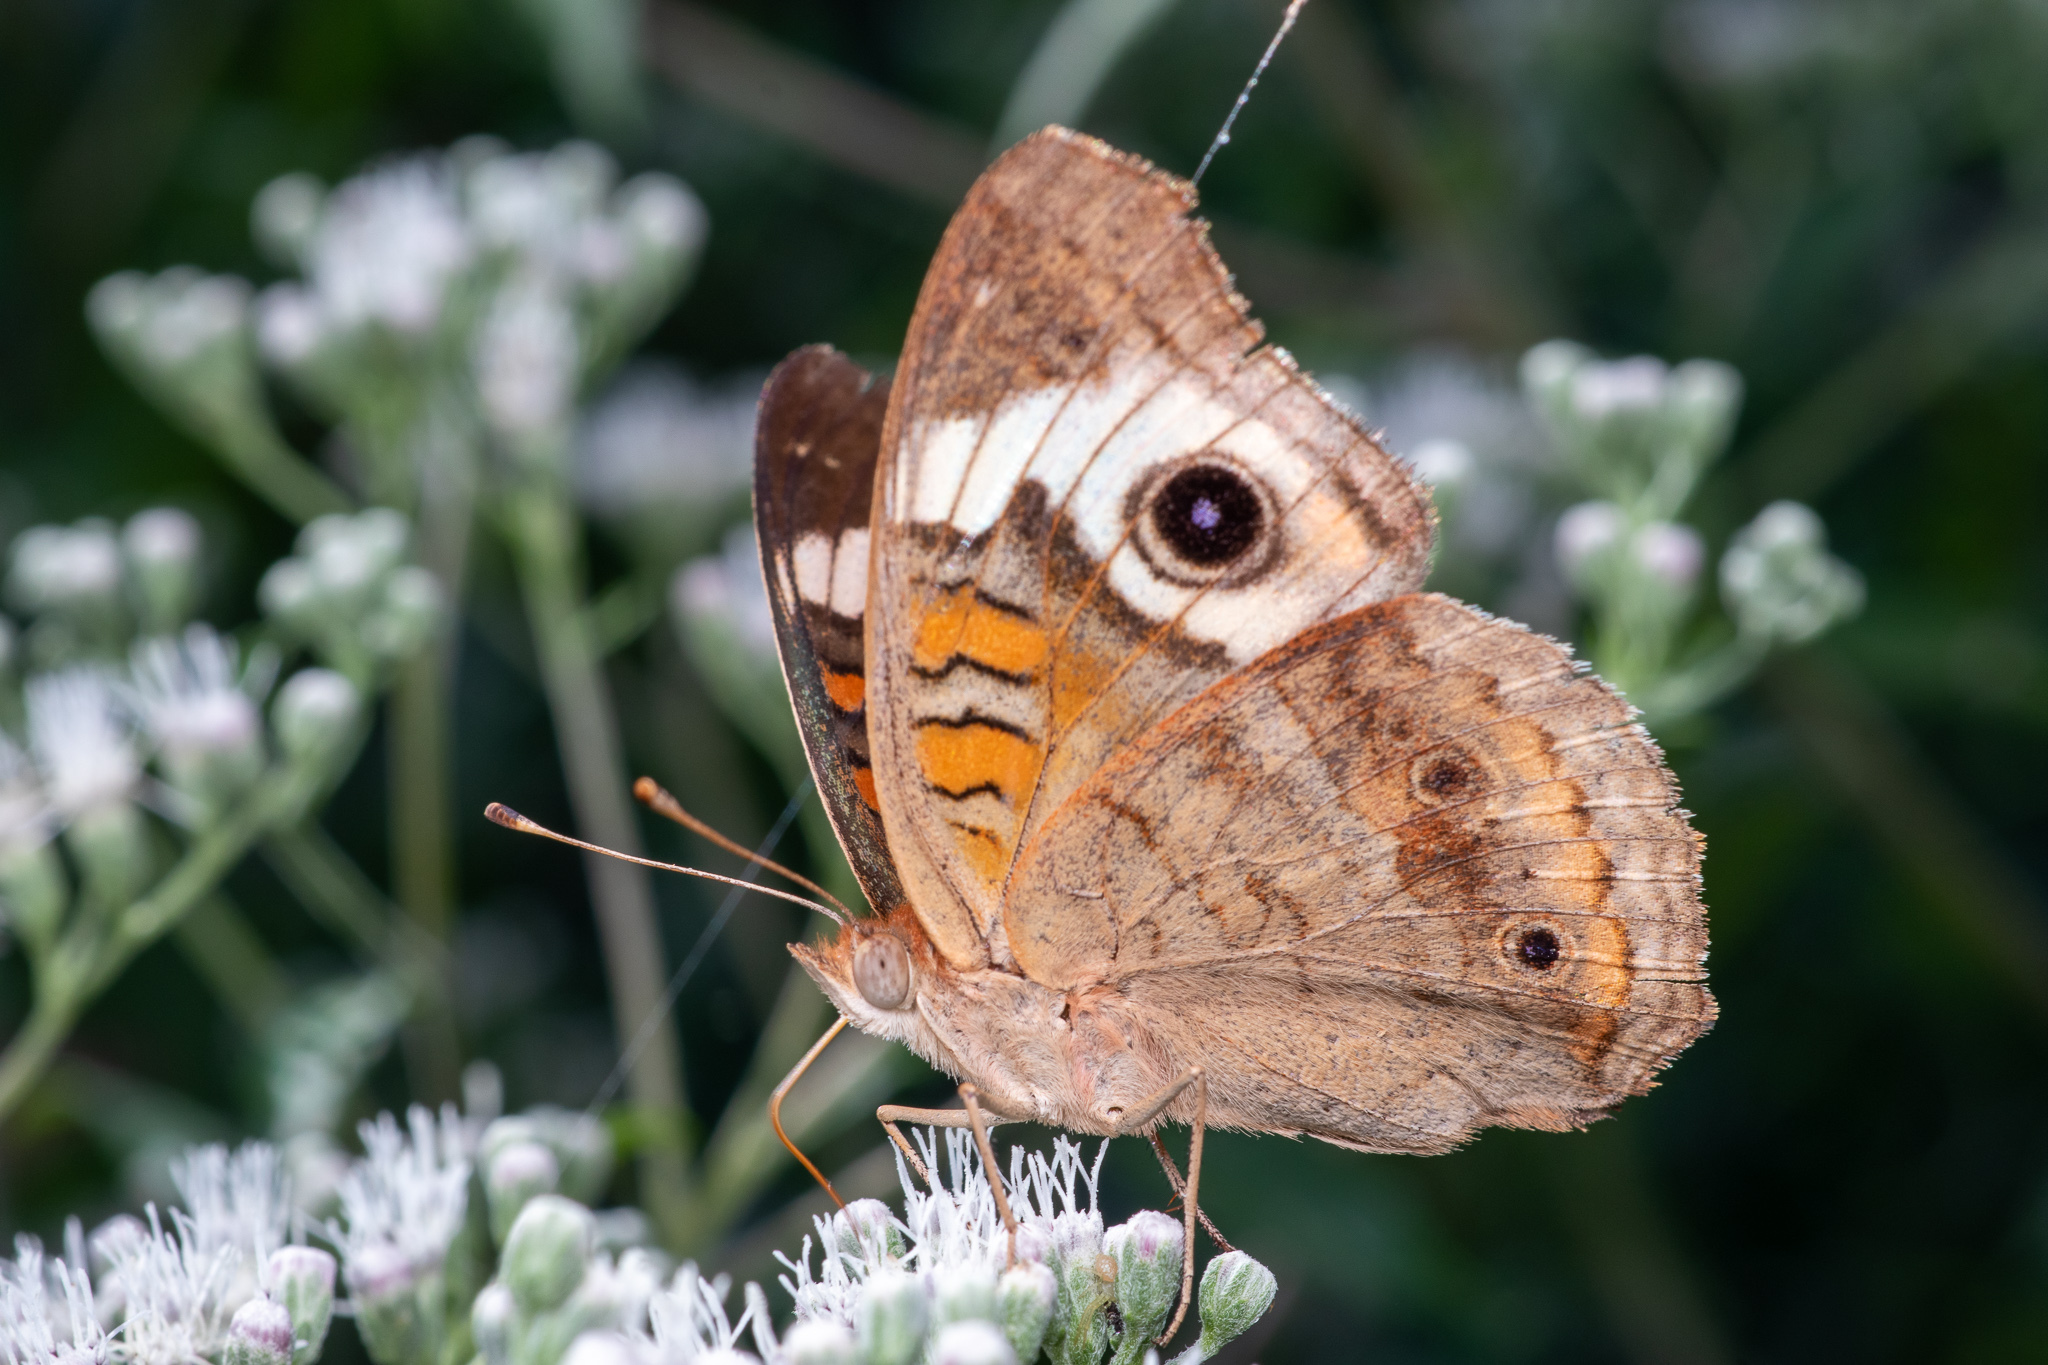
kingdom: Animalia
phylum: Arthropoda
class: Insecta
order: Lepidoptera
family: Nymphalidae
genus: Junonia
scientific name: Junonia coenia
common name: Common buckeye
